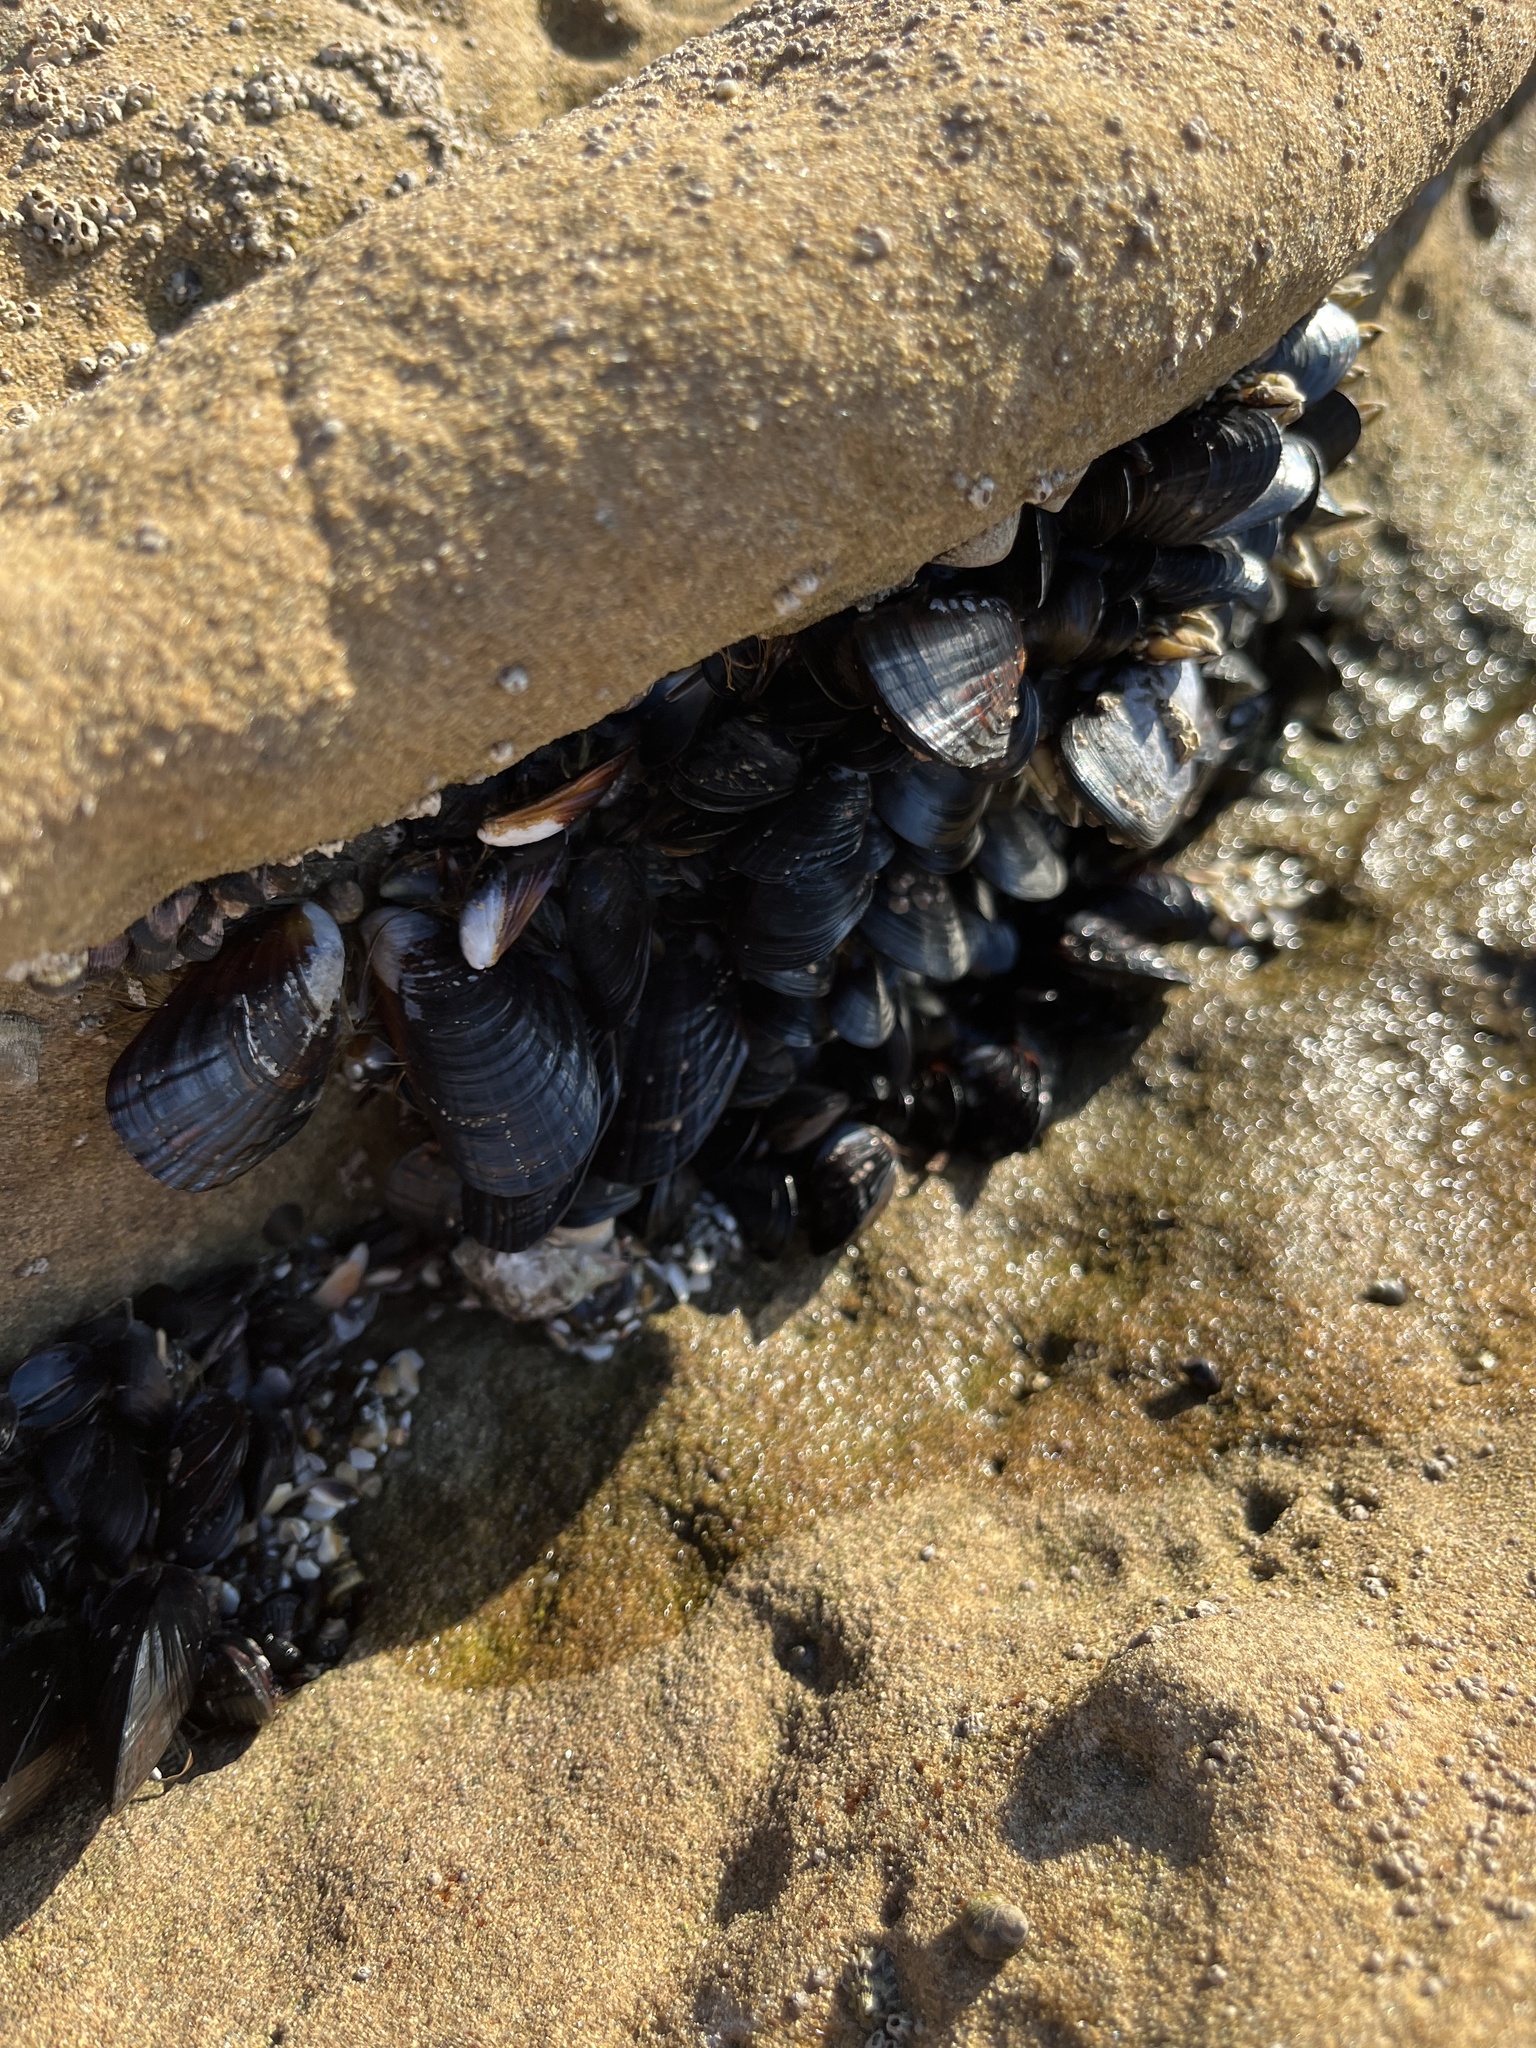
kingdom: Animalia
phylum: Mollusca
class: Bivalvia
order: Mytilida
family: Mytilidae
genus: Mytilus
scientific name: Mytilus californianus
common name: California mussel
